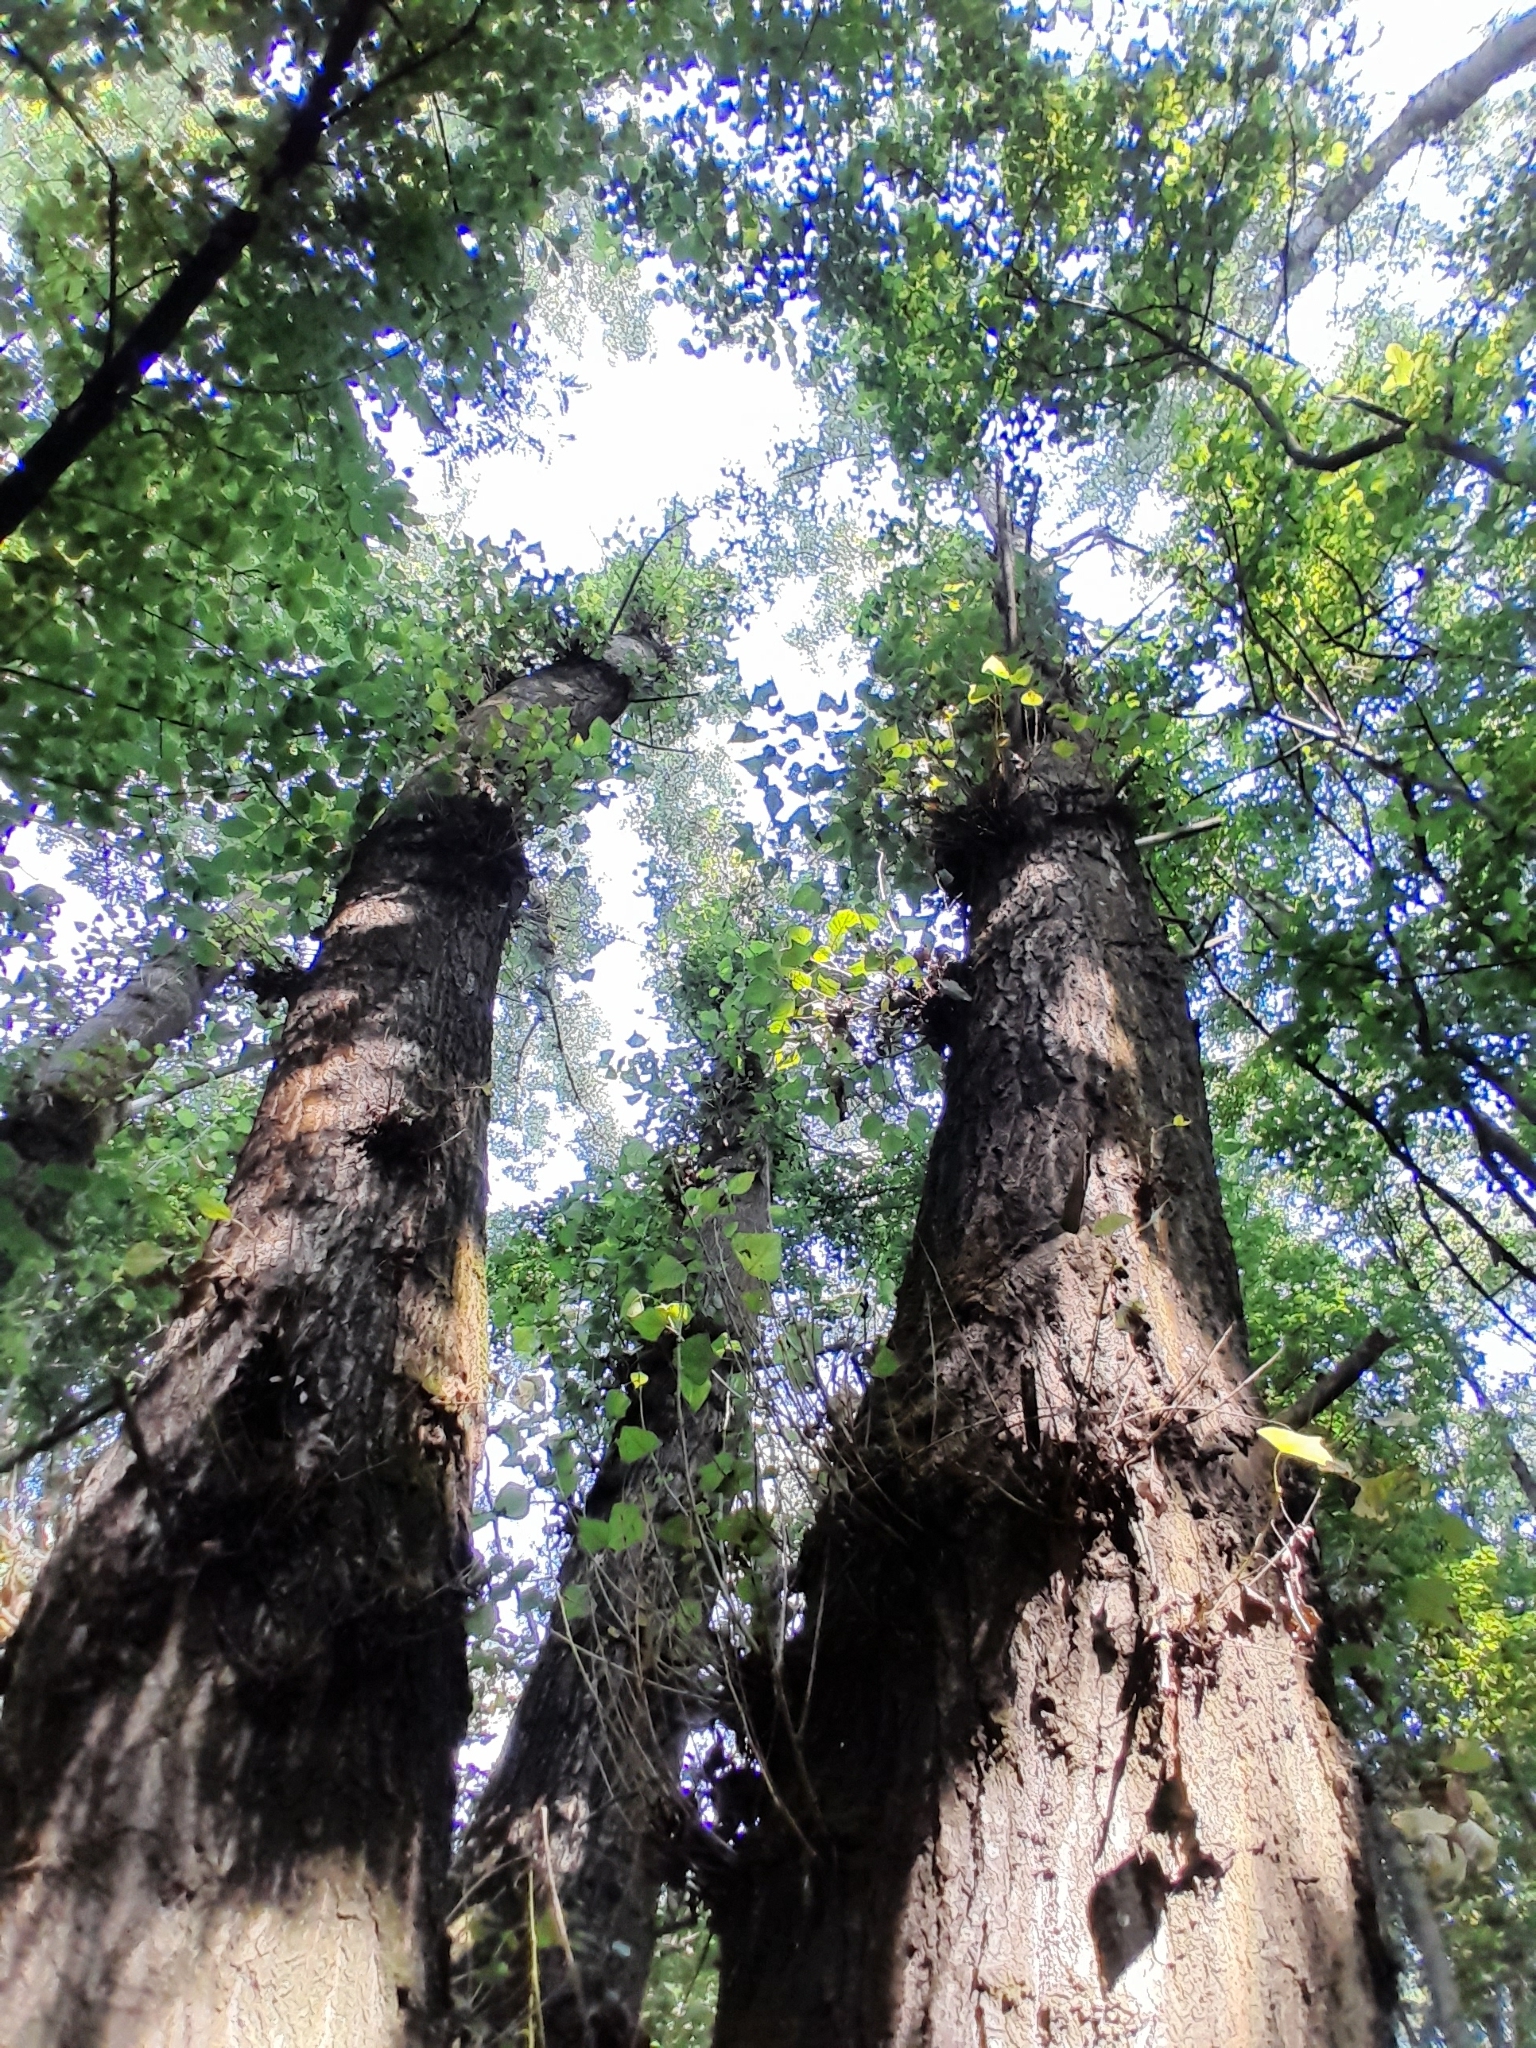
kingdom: Plantae
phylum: Tracheophyta
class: Magnoliopsida
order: Malpighiales
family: Salicaceae
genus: Populus
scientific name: Populus nigra
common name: Black poplar
